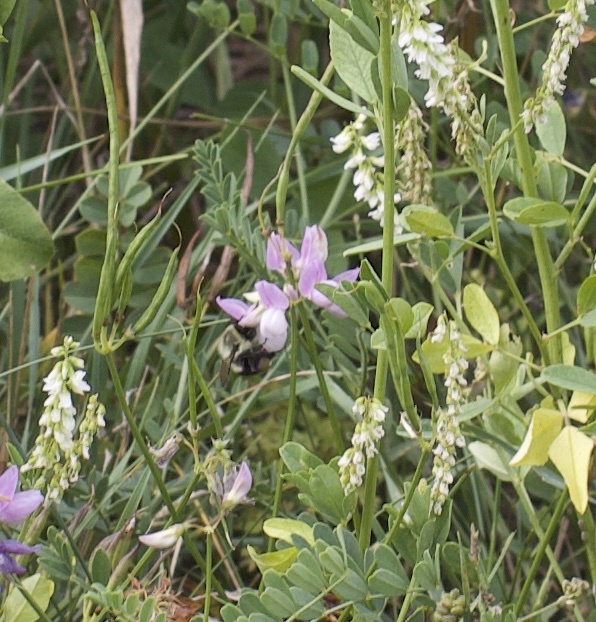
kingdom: Animalia
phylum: Arthropoda
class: Insecta
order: Hymenoptera
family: Apidae
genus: Bombus
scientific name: Bombus impatiens
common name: Common eastern bumble bee
